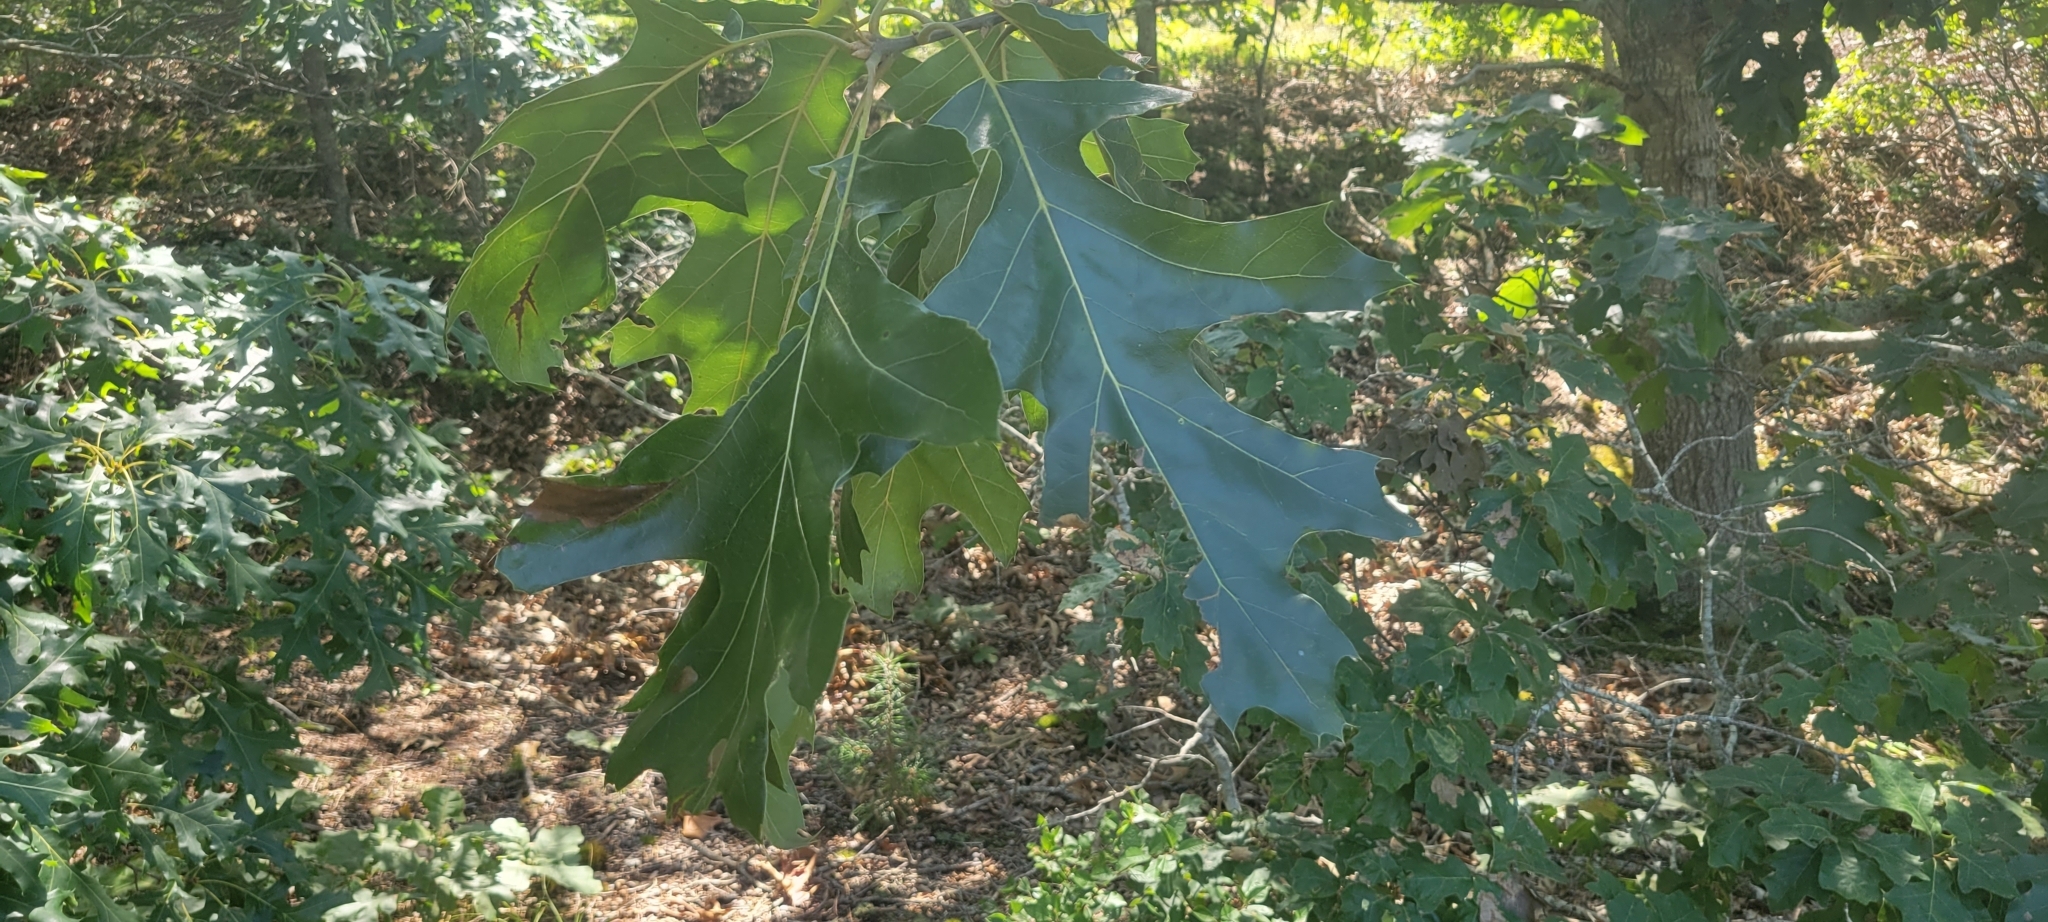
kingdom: Plantae
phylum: Tracheophyta
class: Magnoliopsida
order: Fagales
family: Fagaceae
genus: Quercus
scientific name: Quercus rubra
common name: Red oak
